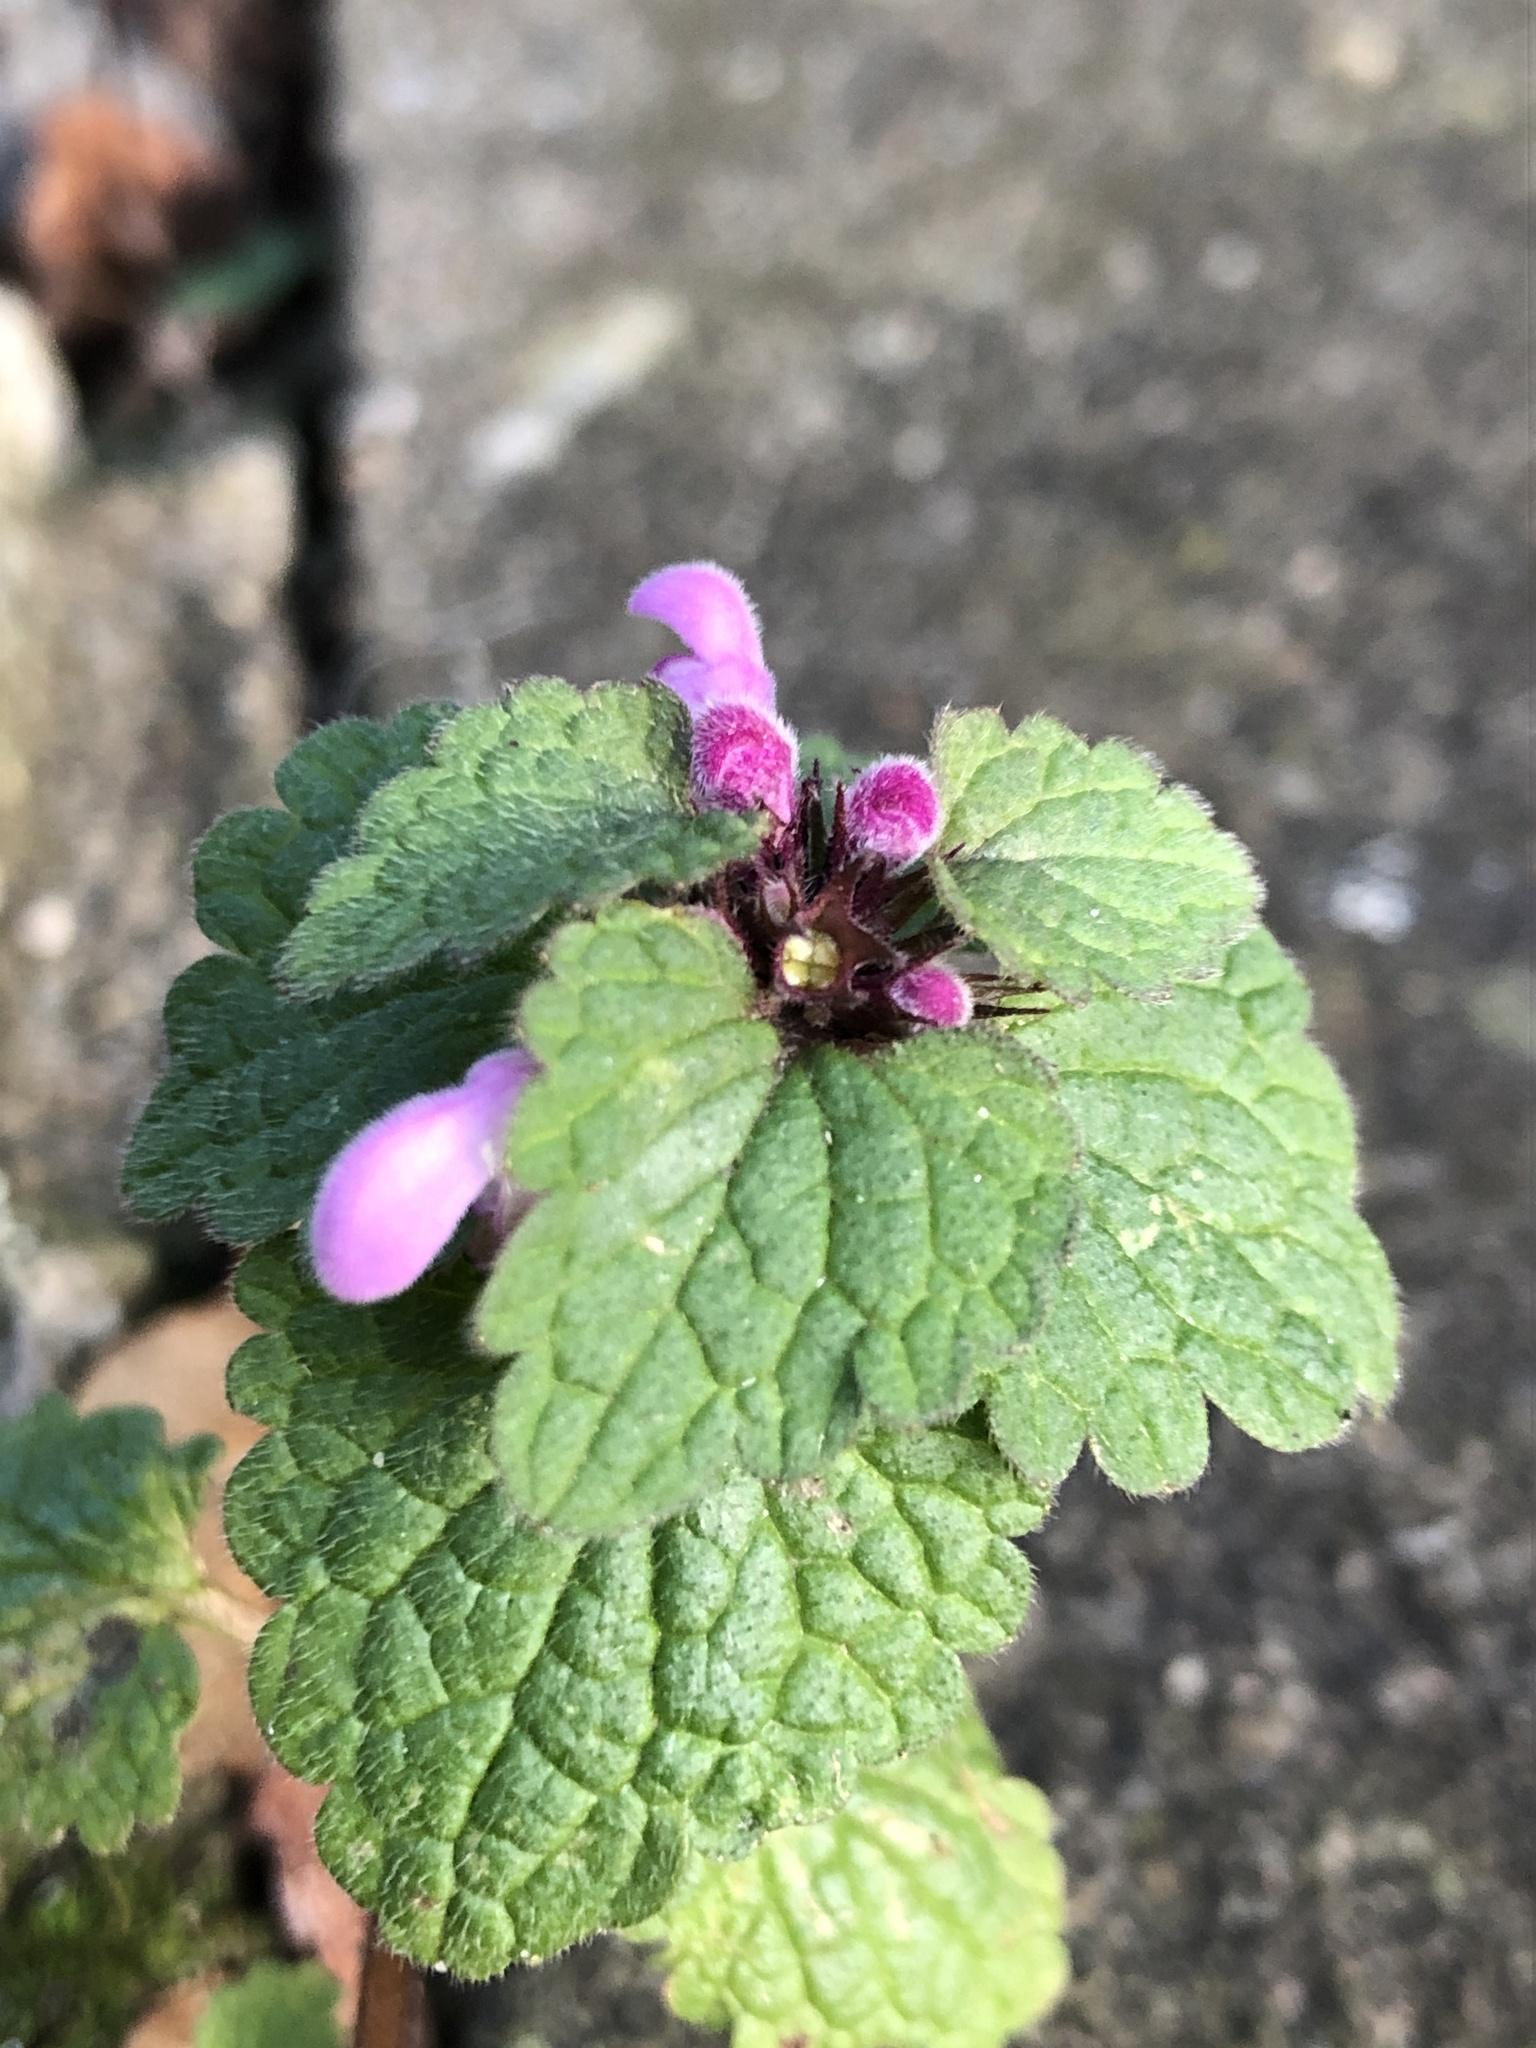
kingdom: Plantae
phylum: Tracheophyta
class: Magnoliopsida
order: Lamiales
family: Lamiaceae
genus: Lamium
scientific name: Lamium purpureum
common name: Red dead-nettle
